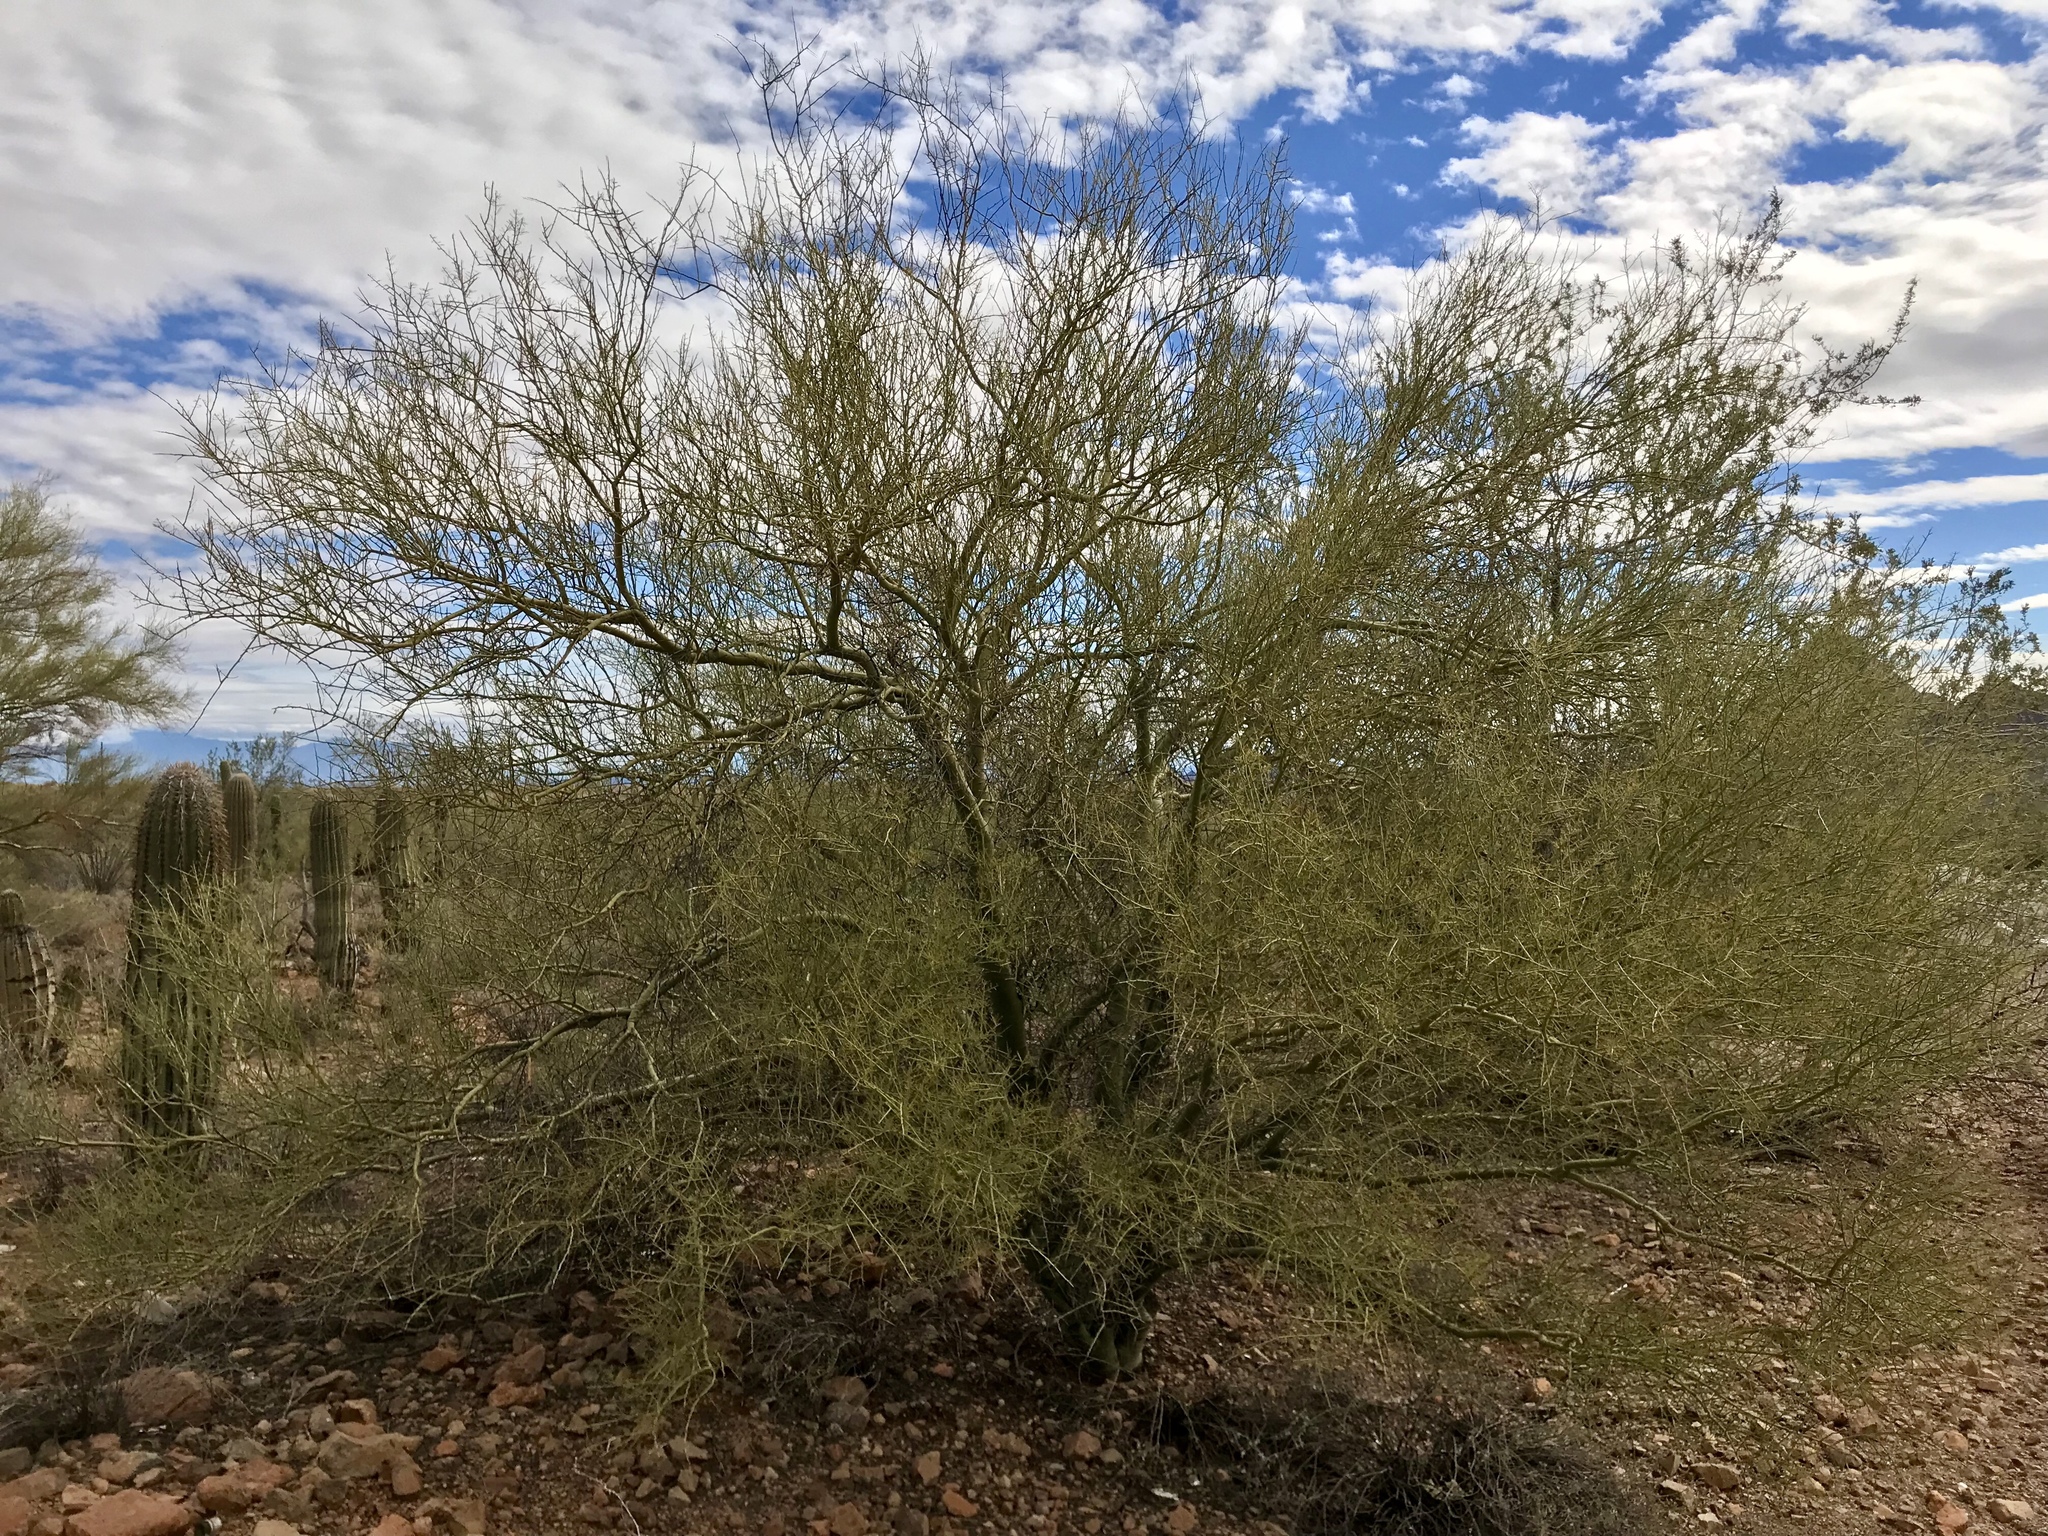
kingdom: Plantae
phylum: Tracheophyta
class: Magnoliopsida
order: Fabales
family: Fabaceae
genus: Parkinsonia
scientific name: Parkinsonia microphylla
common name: Yellow paloverde
